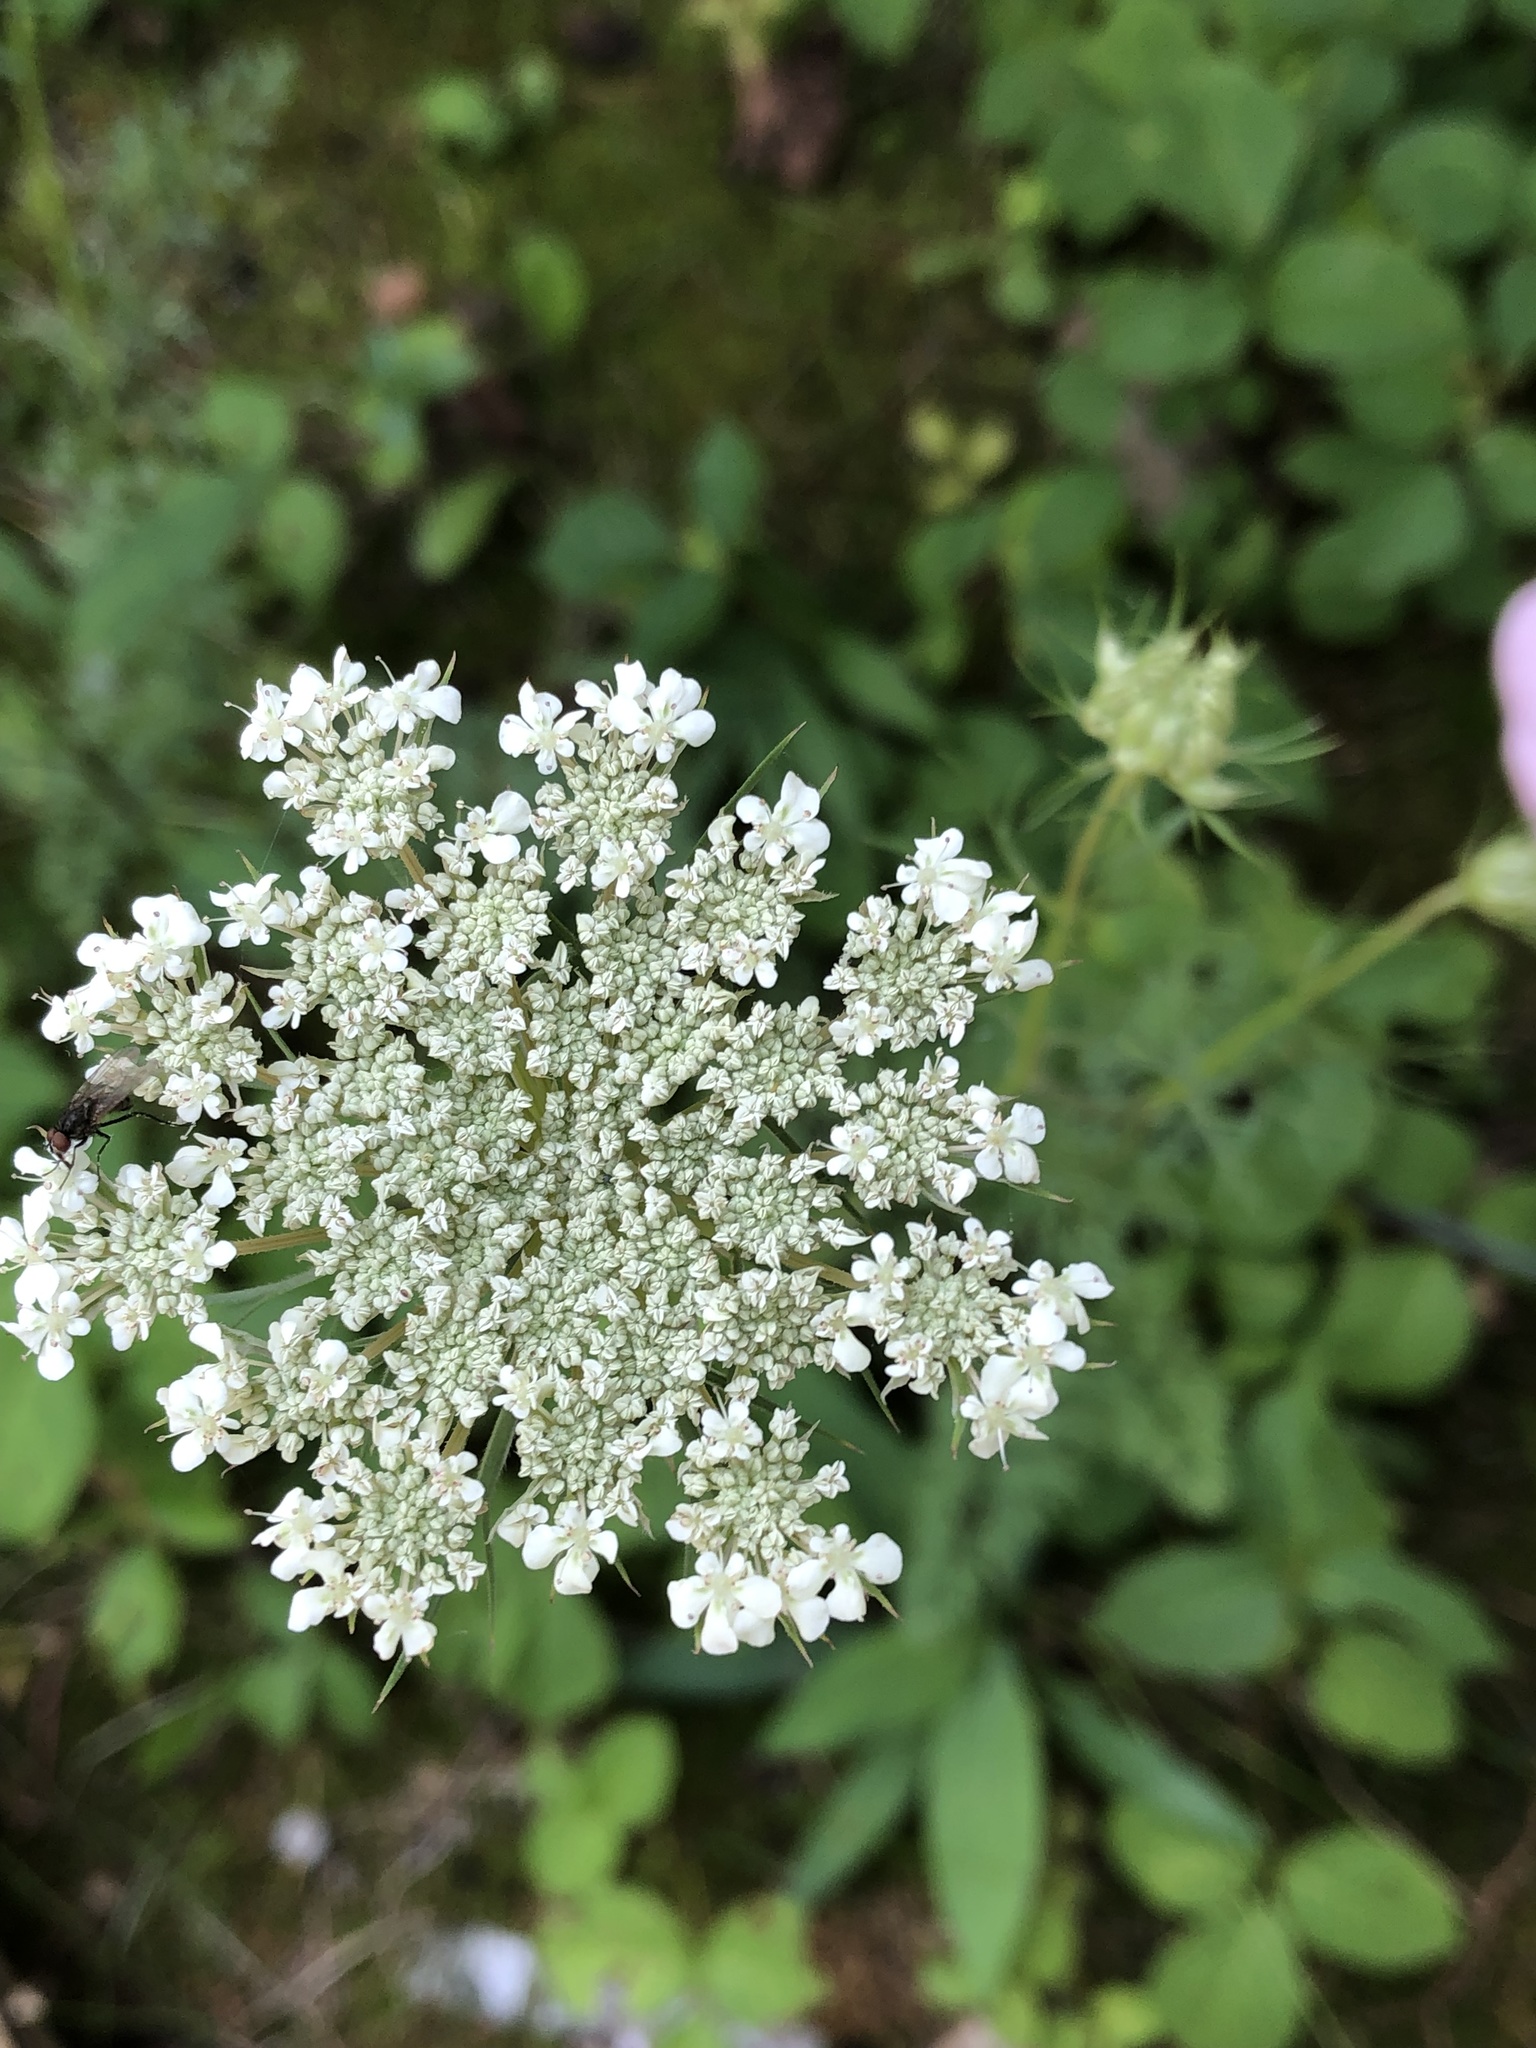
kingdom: Plantae
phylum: Tracheophyta
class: Magnoliopsida
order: Apiales
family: Apiaceae
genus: Daucus
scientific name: Daucus carota
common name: Wild carrot
